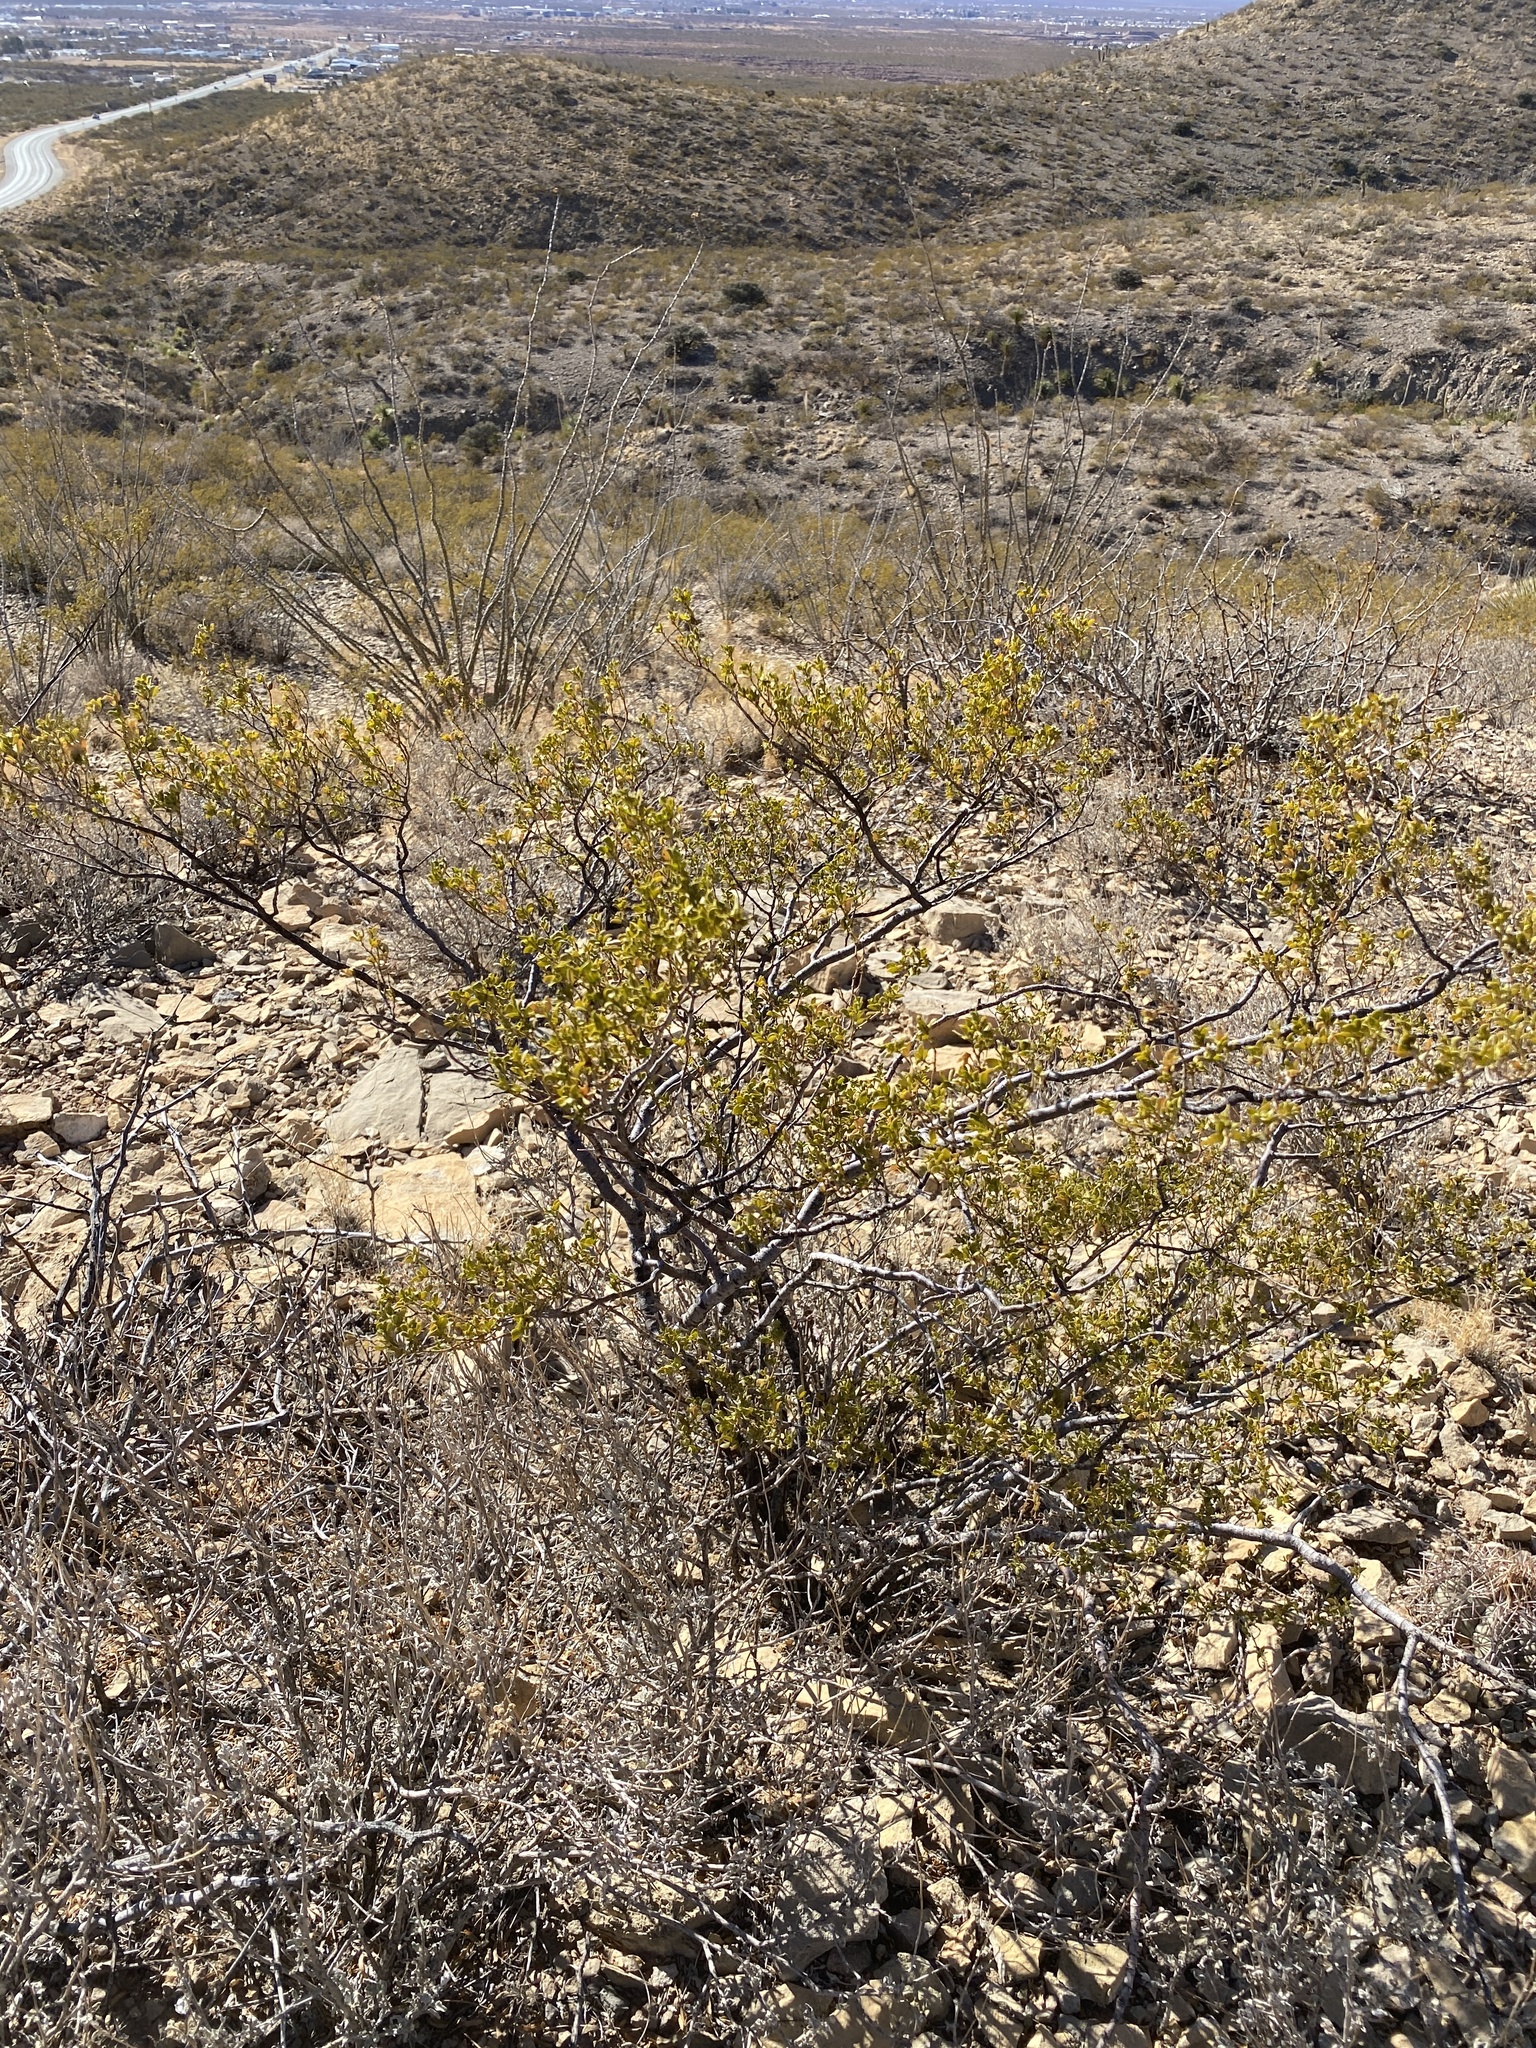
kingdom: Plantae
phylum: Tracheophyta
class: Magnoliopsida
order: Zygophyllales
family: Zygophyllaceae
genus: Larrea
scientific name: Larrea tridentata
